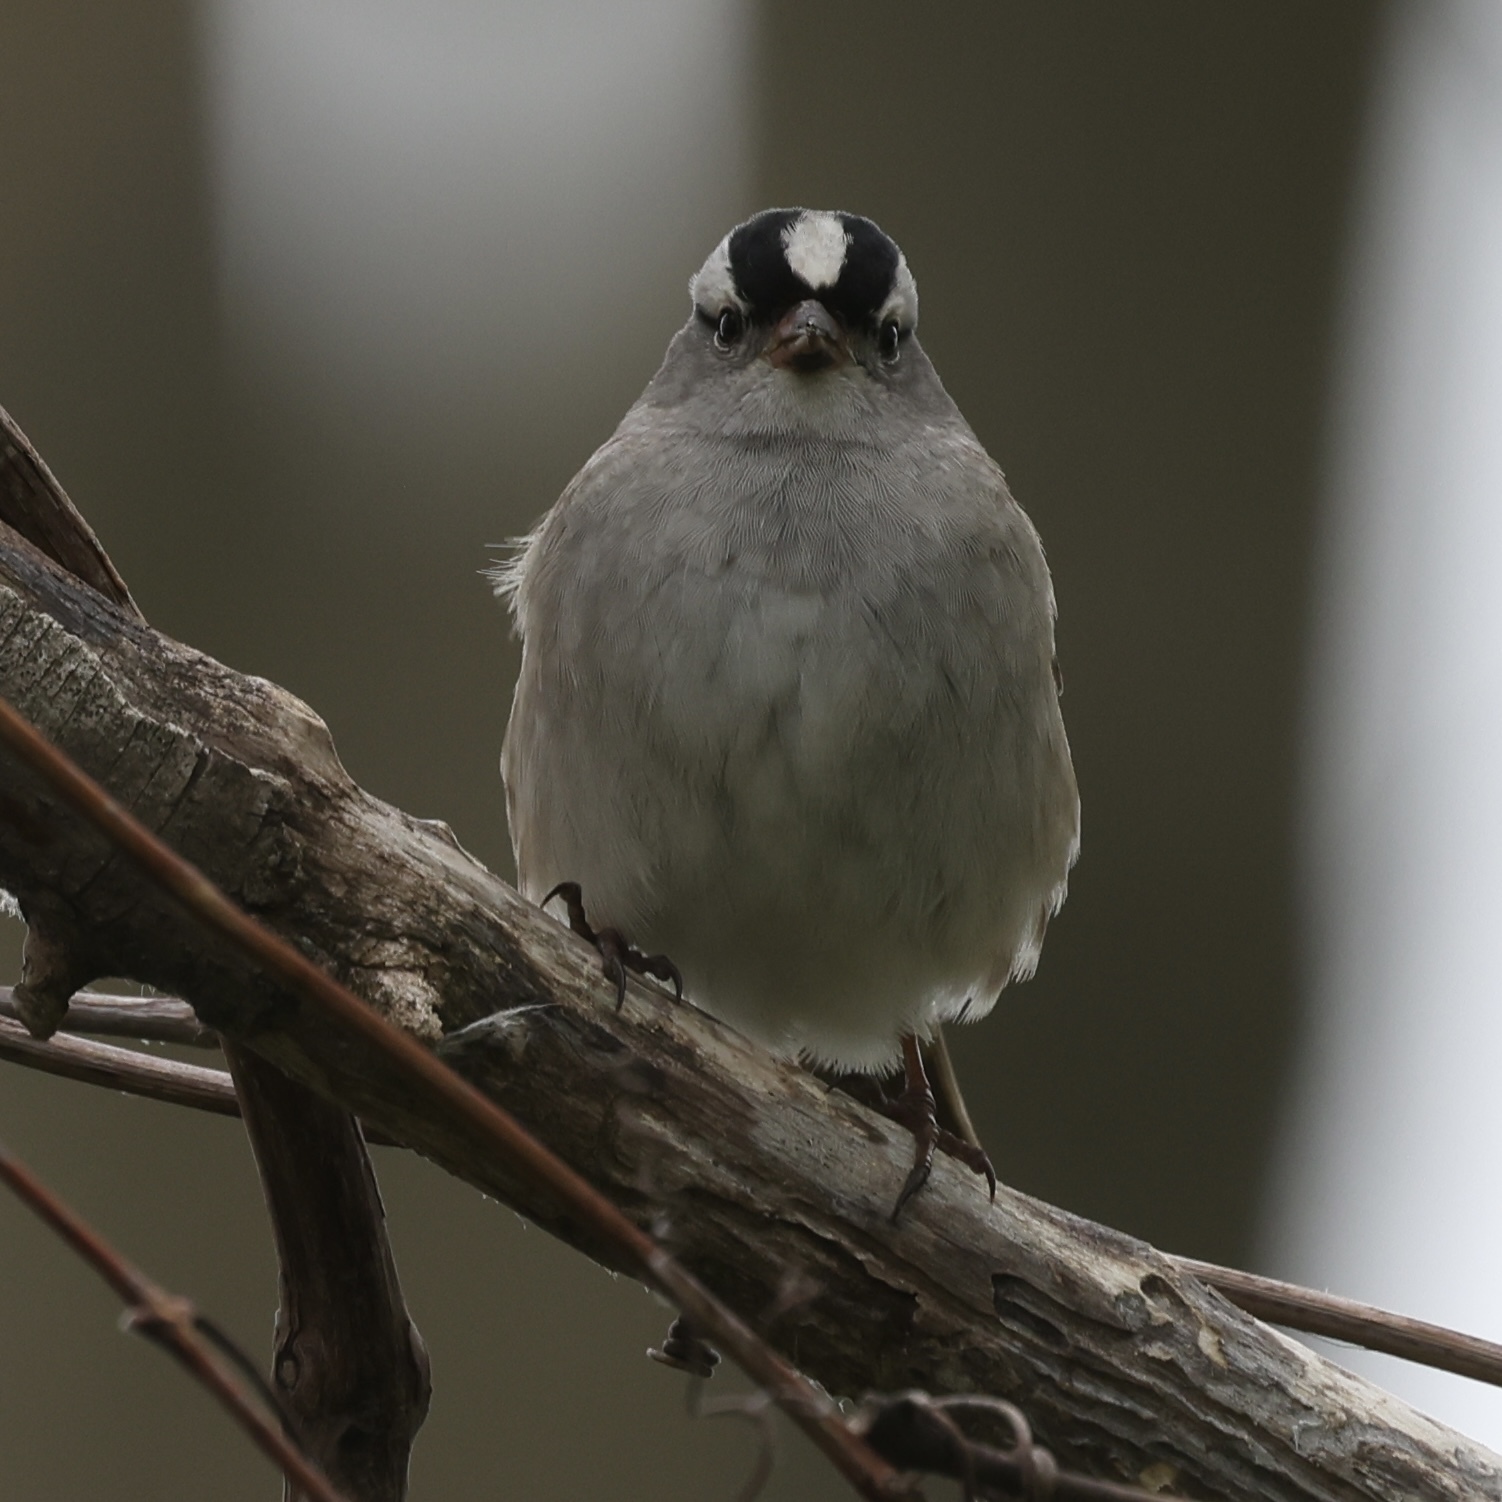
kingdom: Animalia
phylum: Chordata
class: Aves
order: Passeriformes
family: Passerellidae
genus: Zonotrichia
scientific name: Zonotrichia leucophrys
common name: White-crowned sparrow
